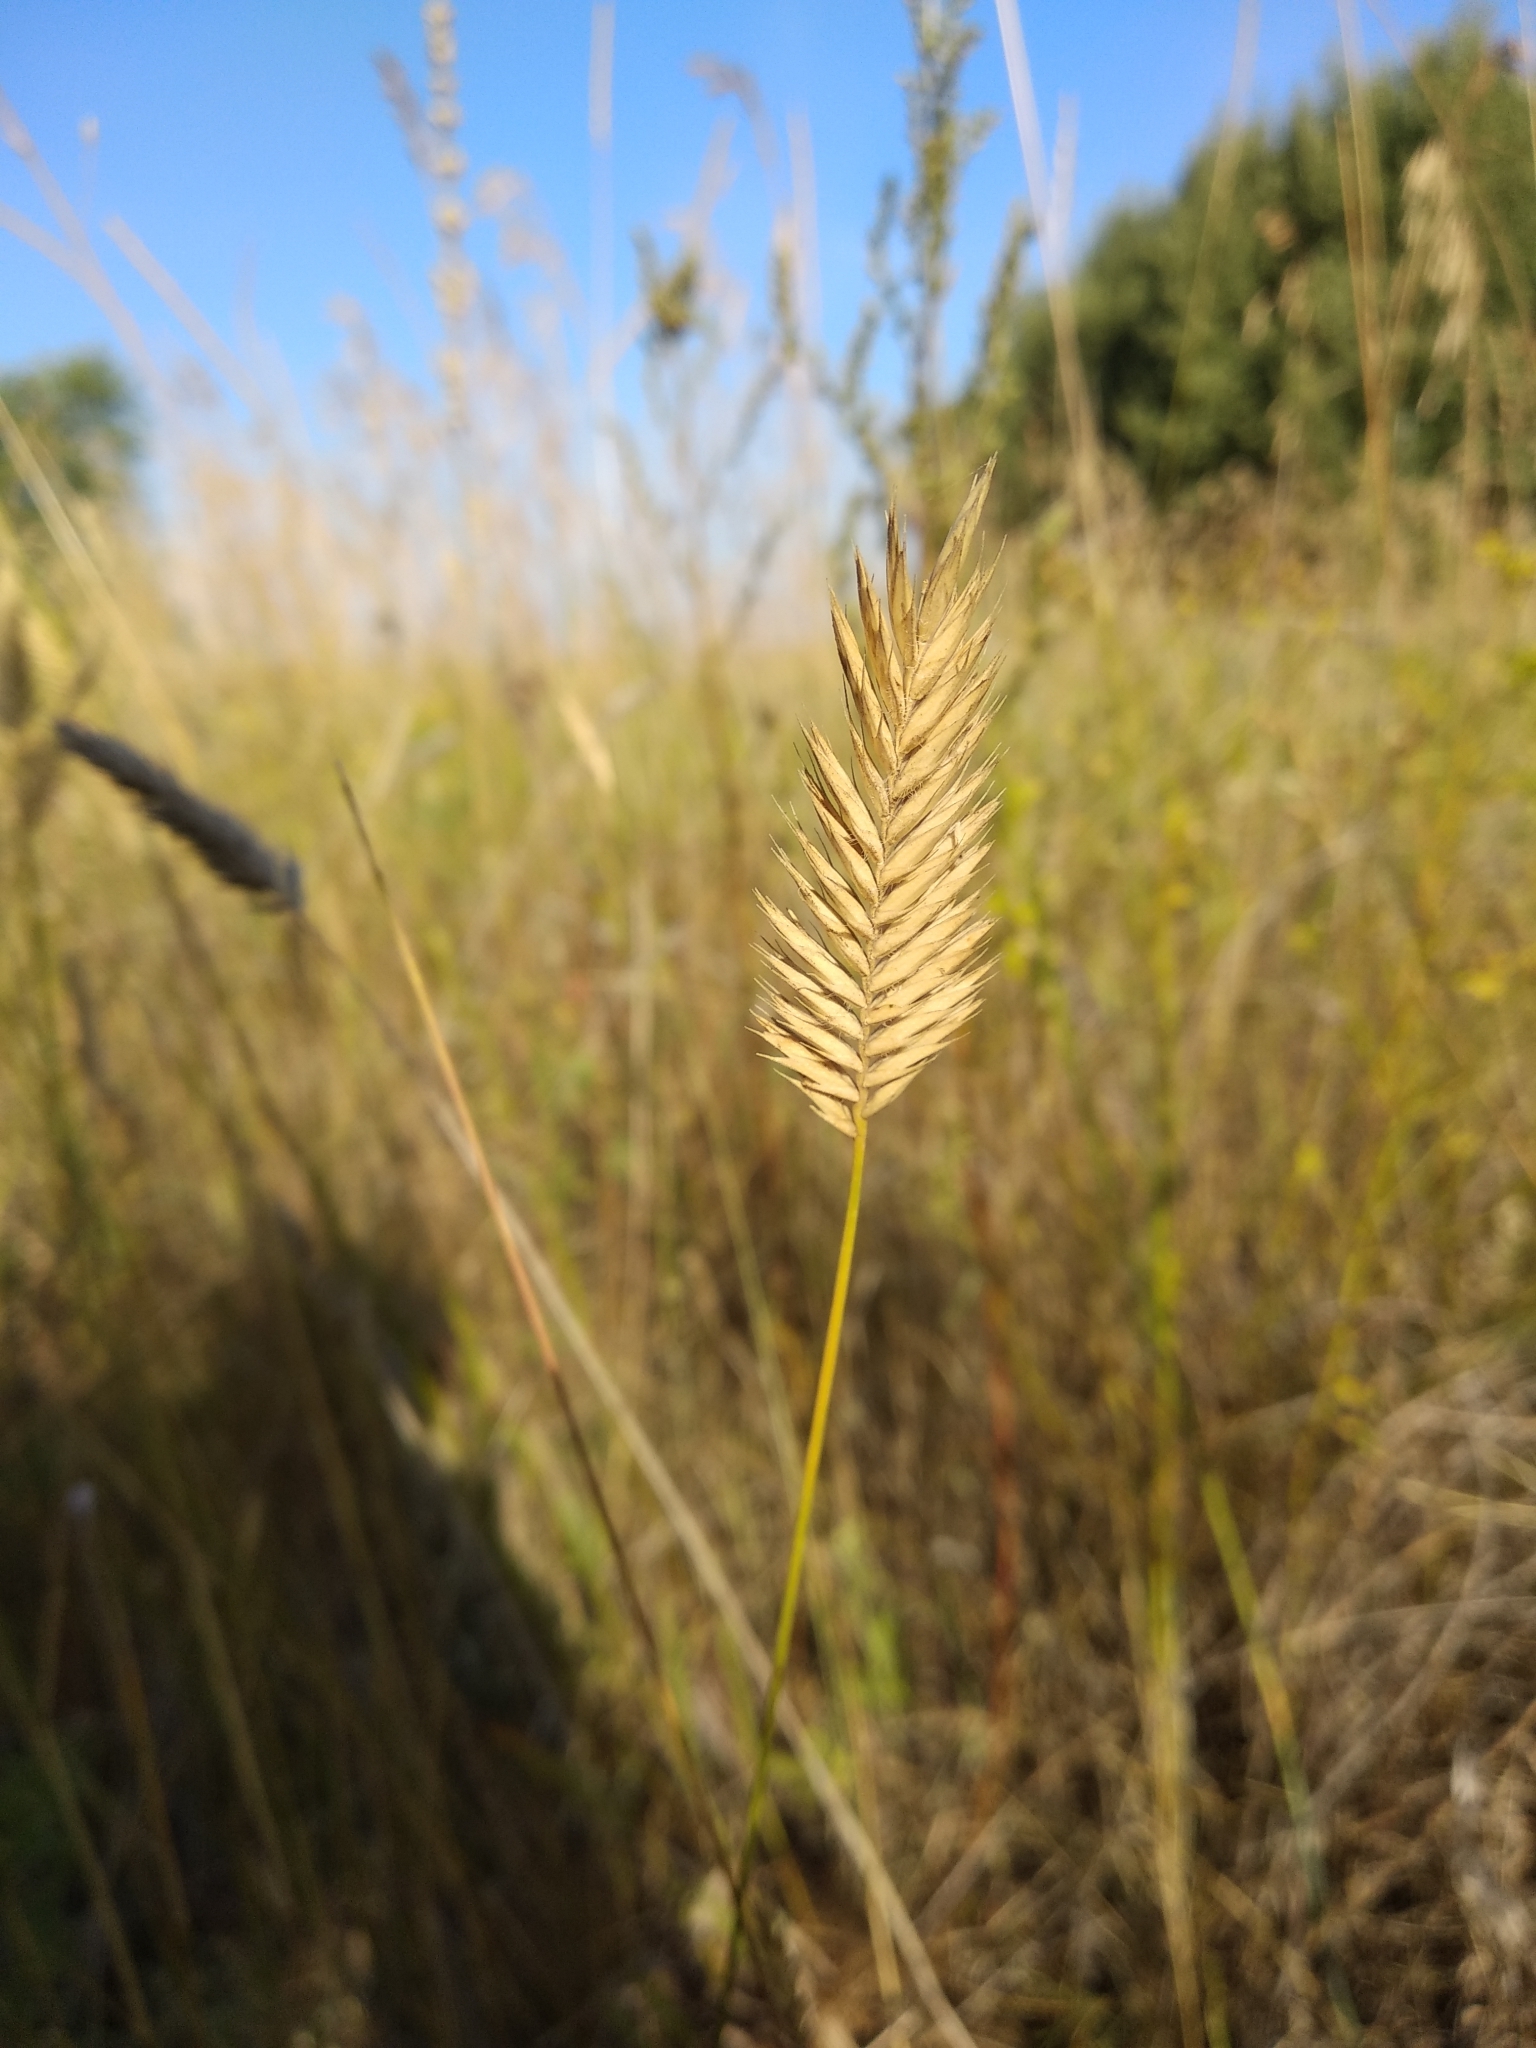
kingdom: Plantae
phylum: Tracheophyta
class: Liliopsida
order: Poales
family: Poaceae
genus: Agropyron
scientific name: Agropyron cristatum
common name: Crested wheatgrass
